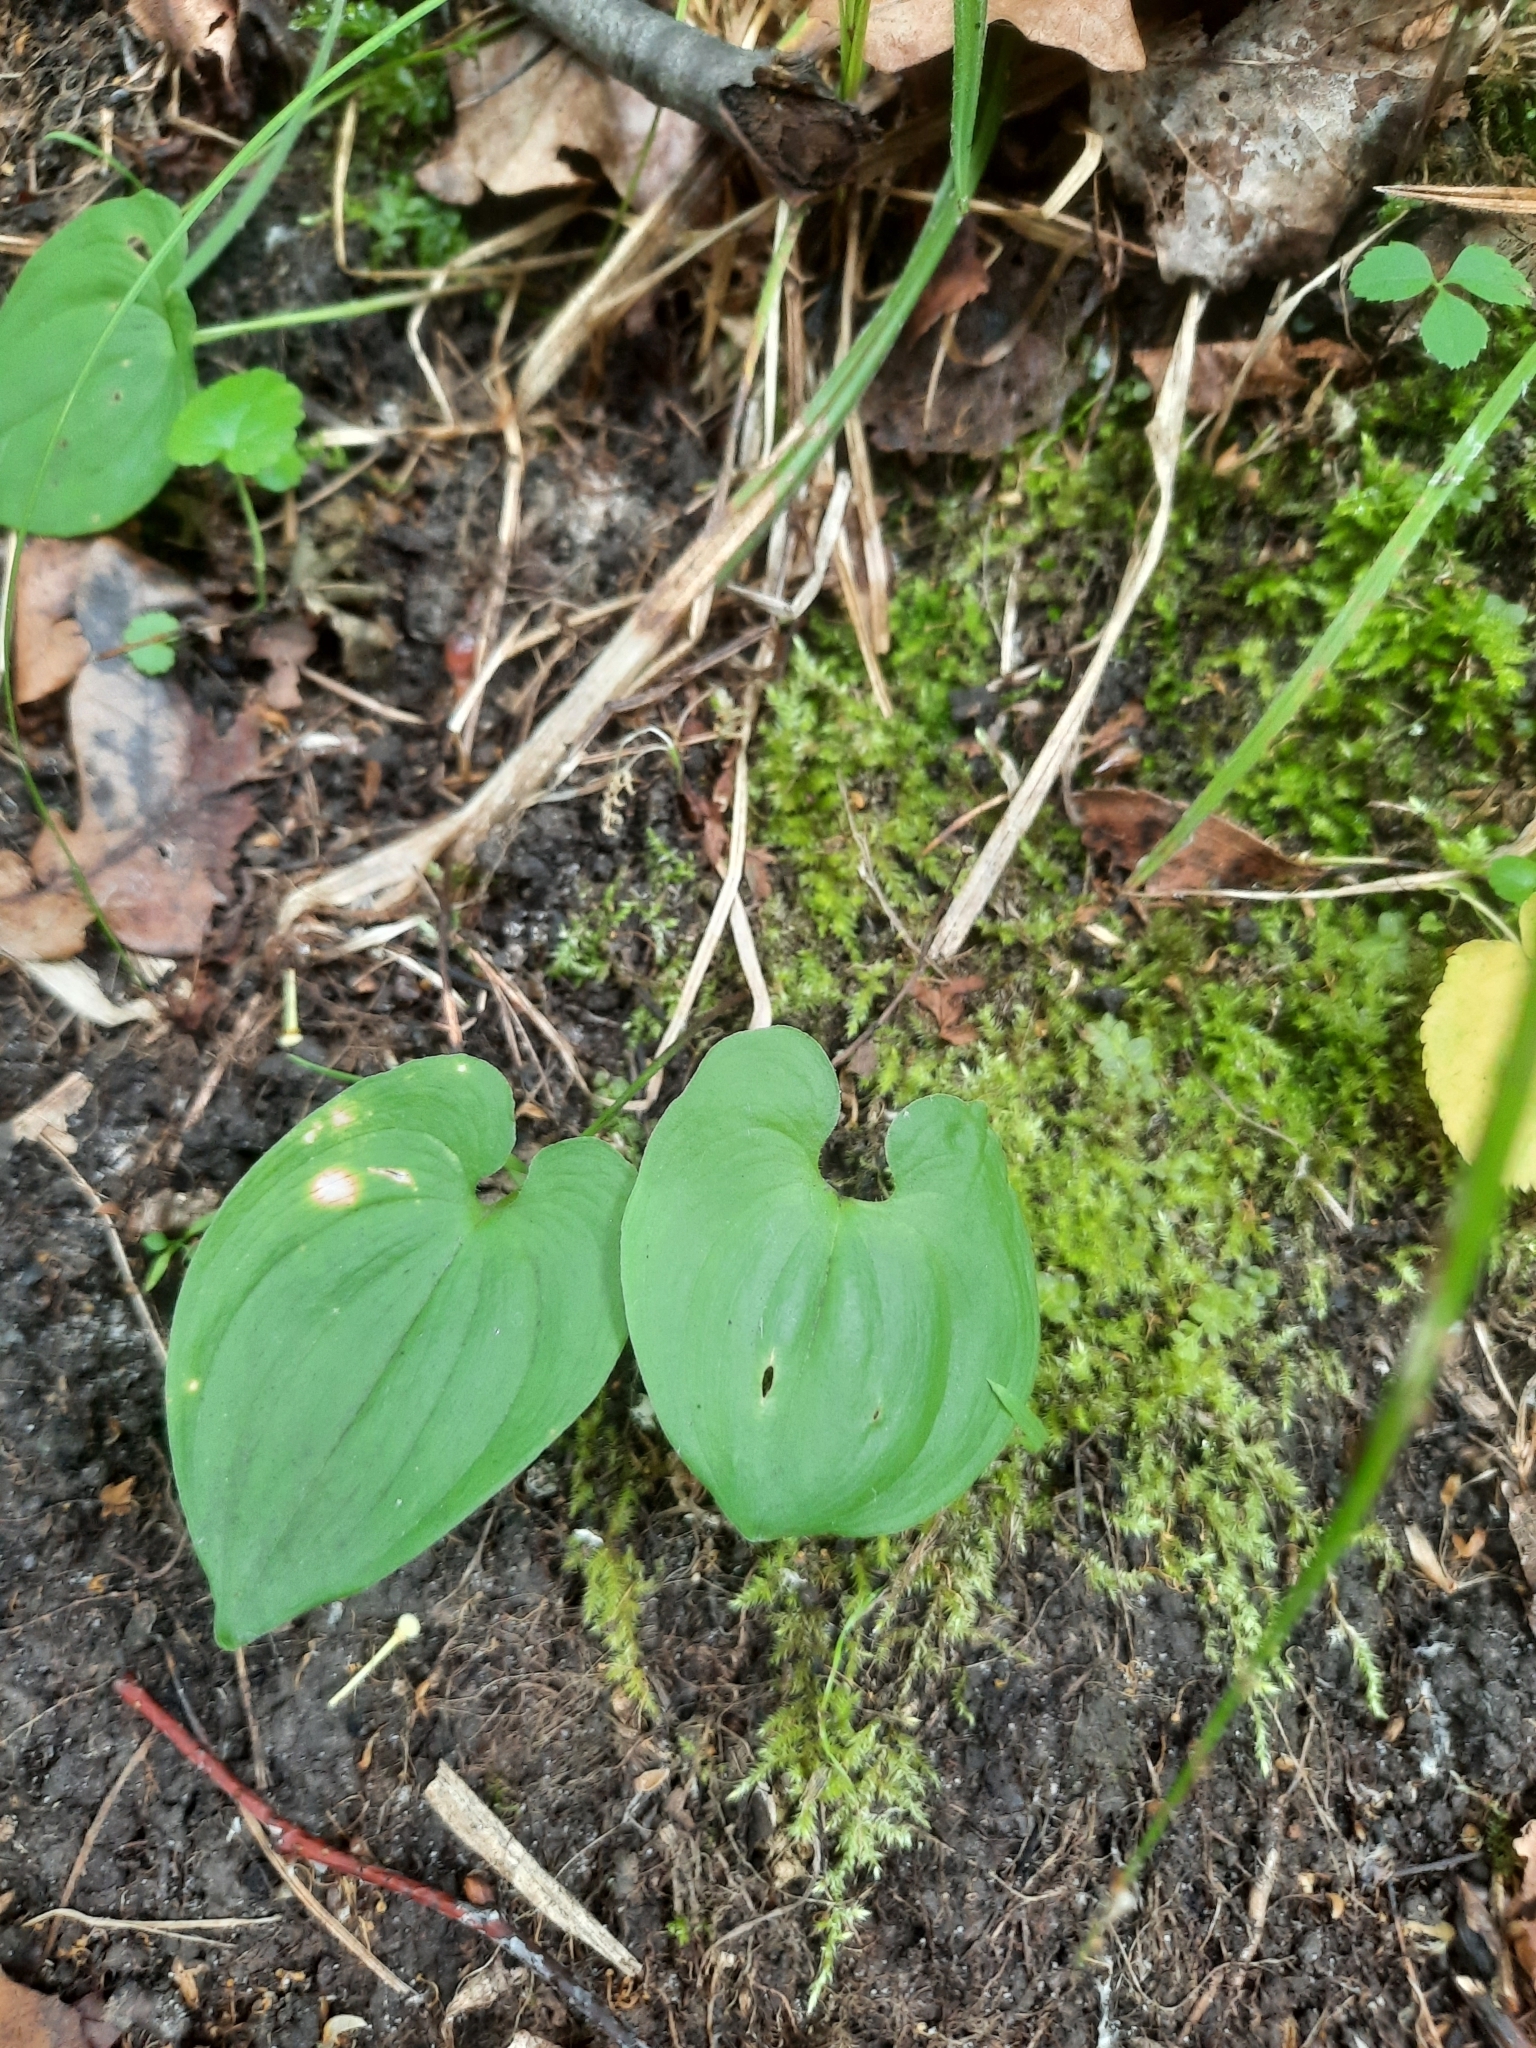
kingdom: Plantae
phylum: Tracheophyta
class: Liliopsida
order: Asparagales
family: Asparagaceae
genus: Maianthemum
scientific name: Maianthemum bifolium
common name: May lily
